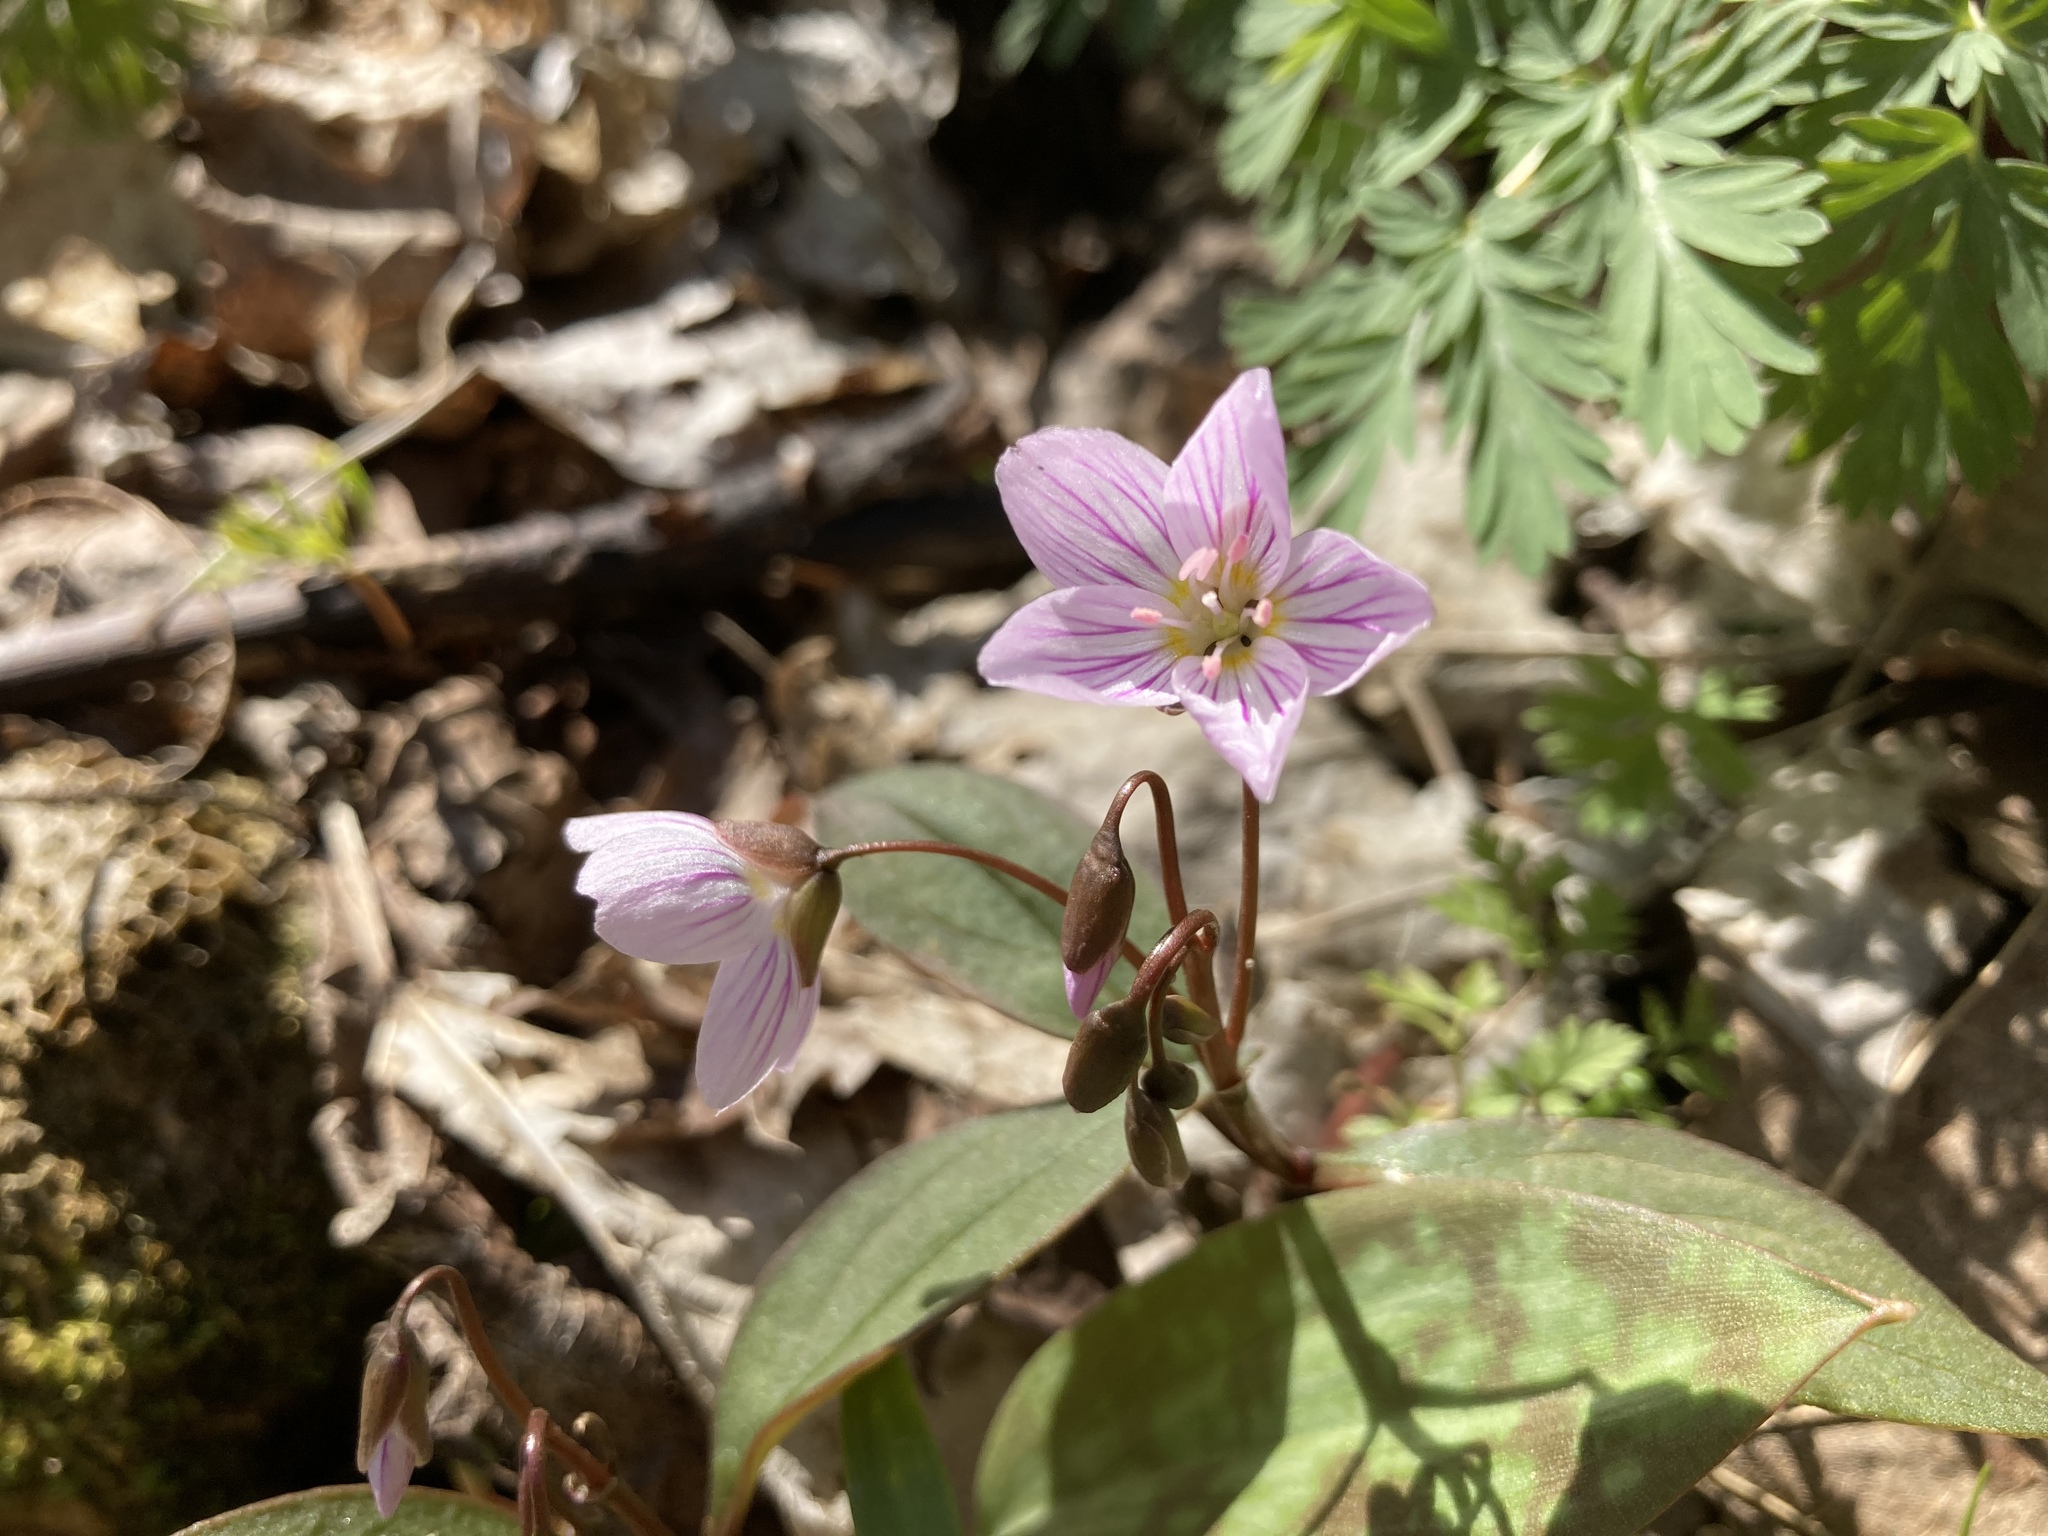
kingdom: Plantae
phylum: Tracheophyta
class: Magnoliopsida
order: Caryophyllales
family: Montiaceae
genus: Claytonia
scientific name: Claytonia caroliniana
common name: Carolina spring beauty
